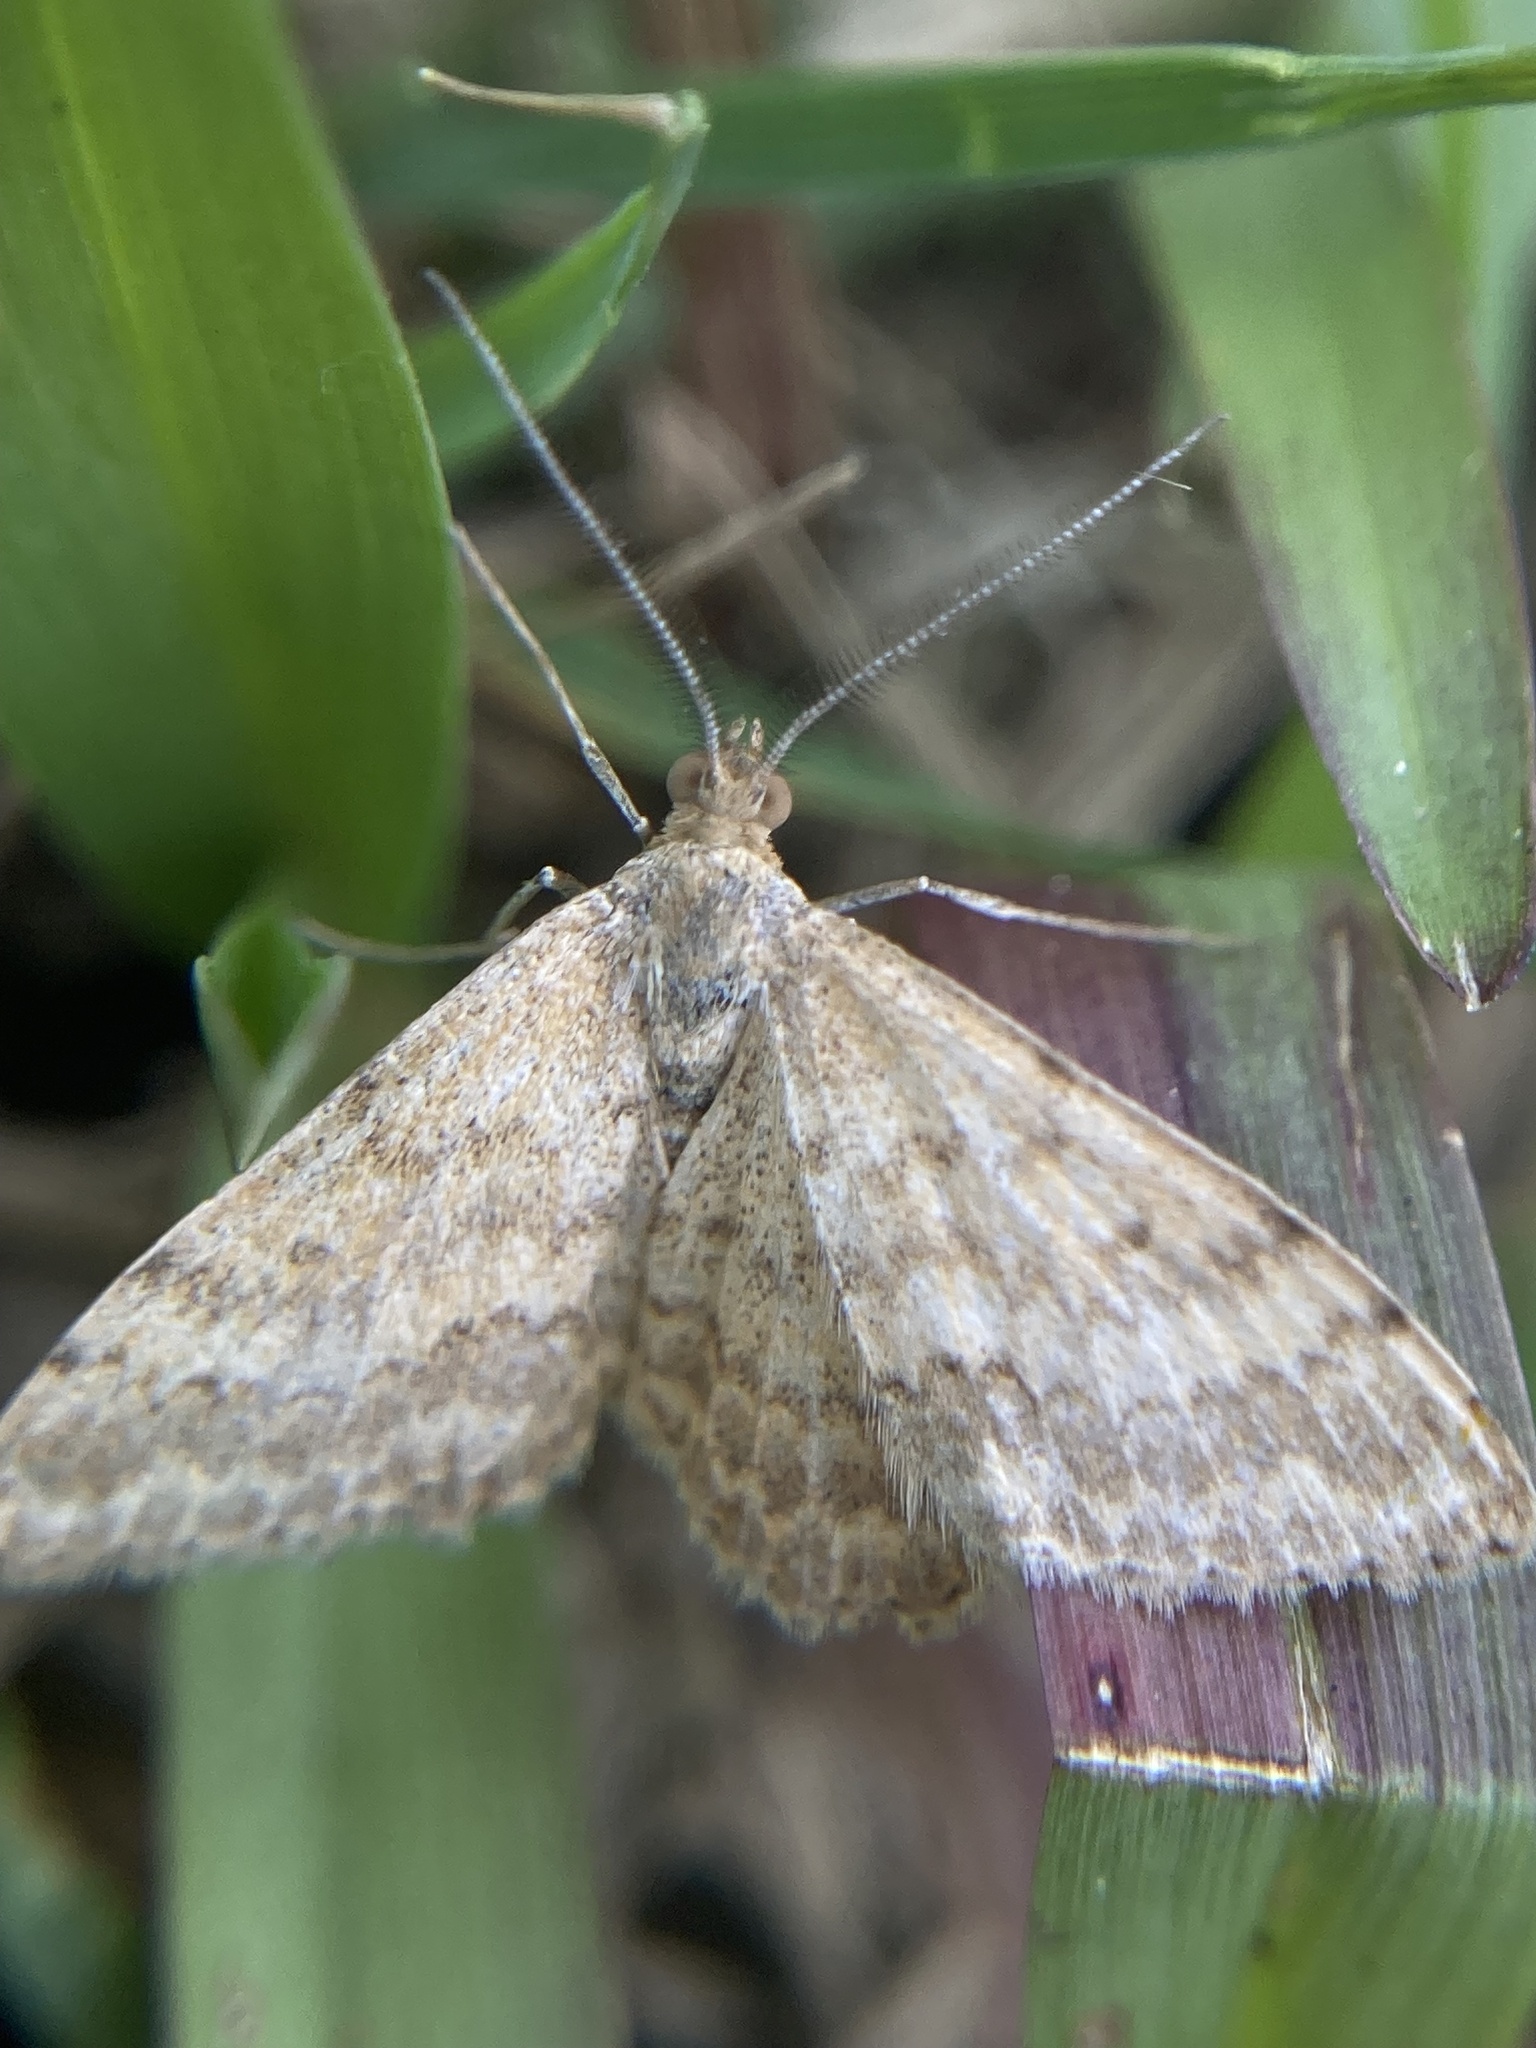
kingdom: Animalia
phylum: Arthropoda
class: Insecta
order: Lepidoptera
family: Geometridae
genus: Scopula
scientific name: Scopula rubraria
